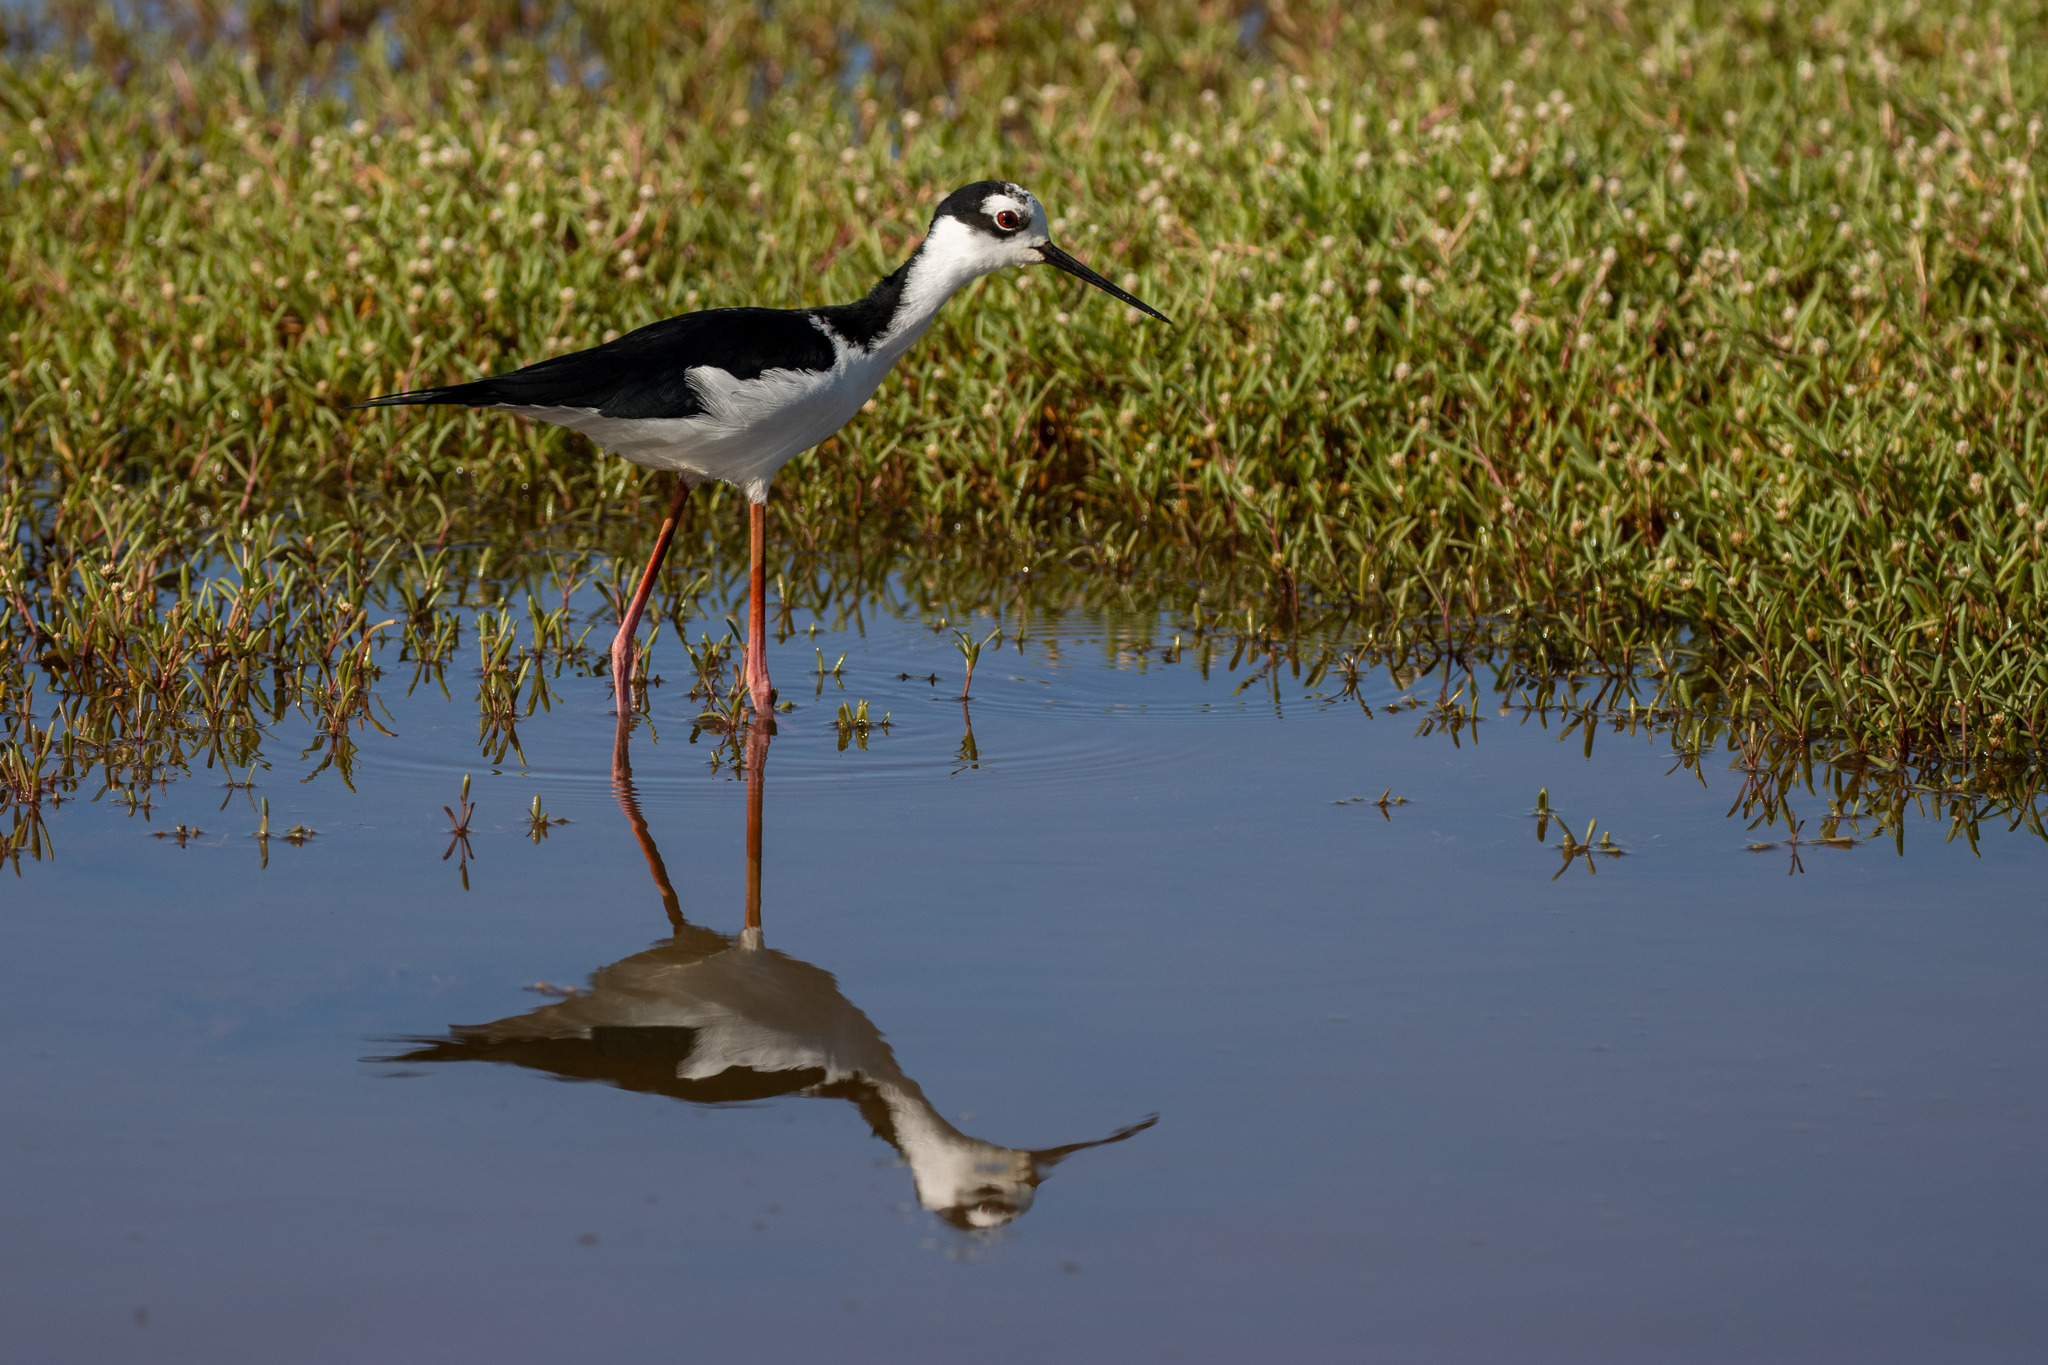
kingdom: Animalia
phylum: Chordata
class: Aves
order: Charadriiformes
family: Recurvirostridae
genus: Himantopus
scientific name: Himantopus mexicanus
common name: Black-necked stilt
